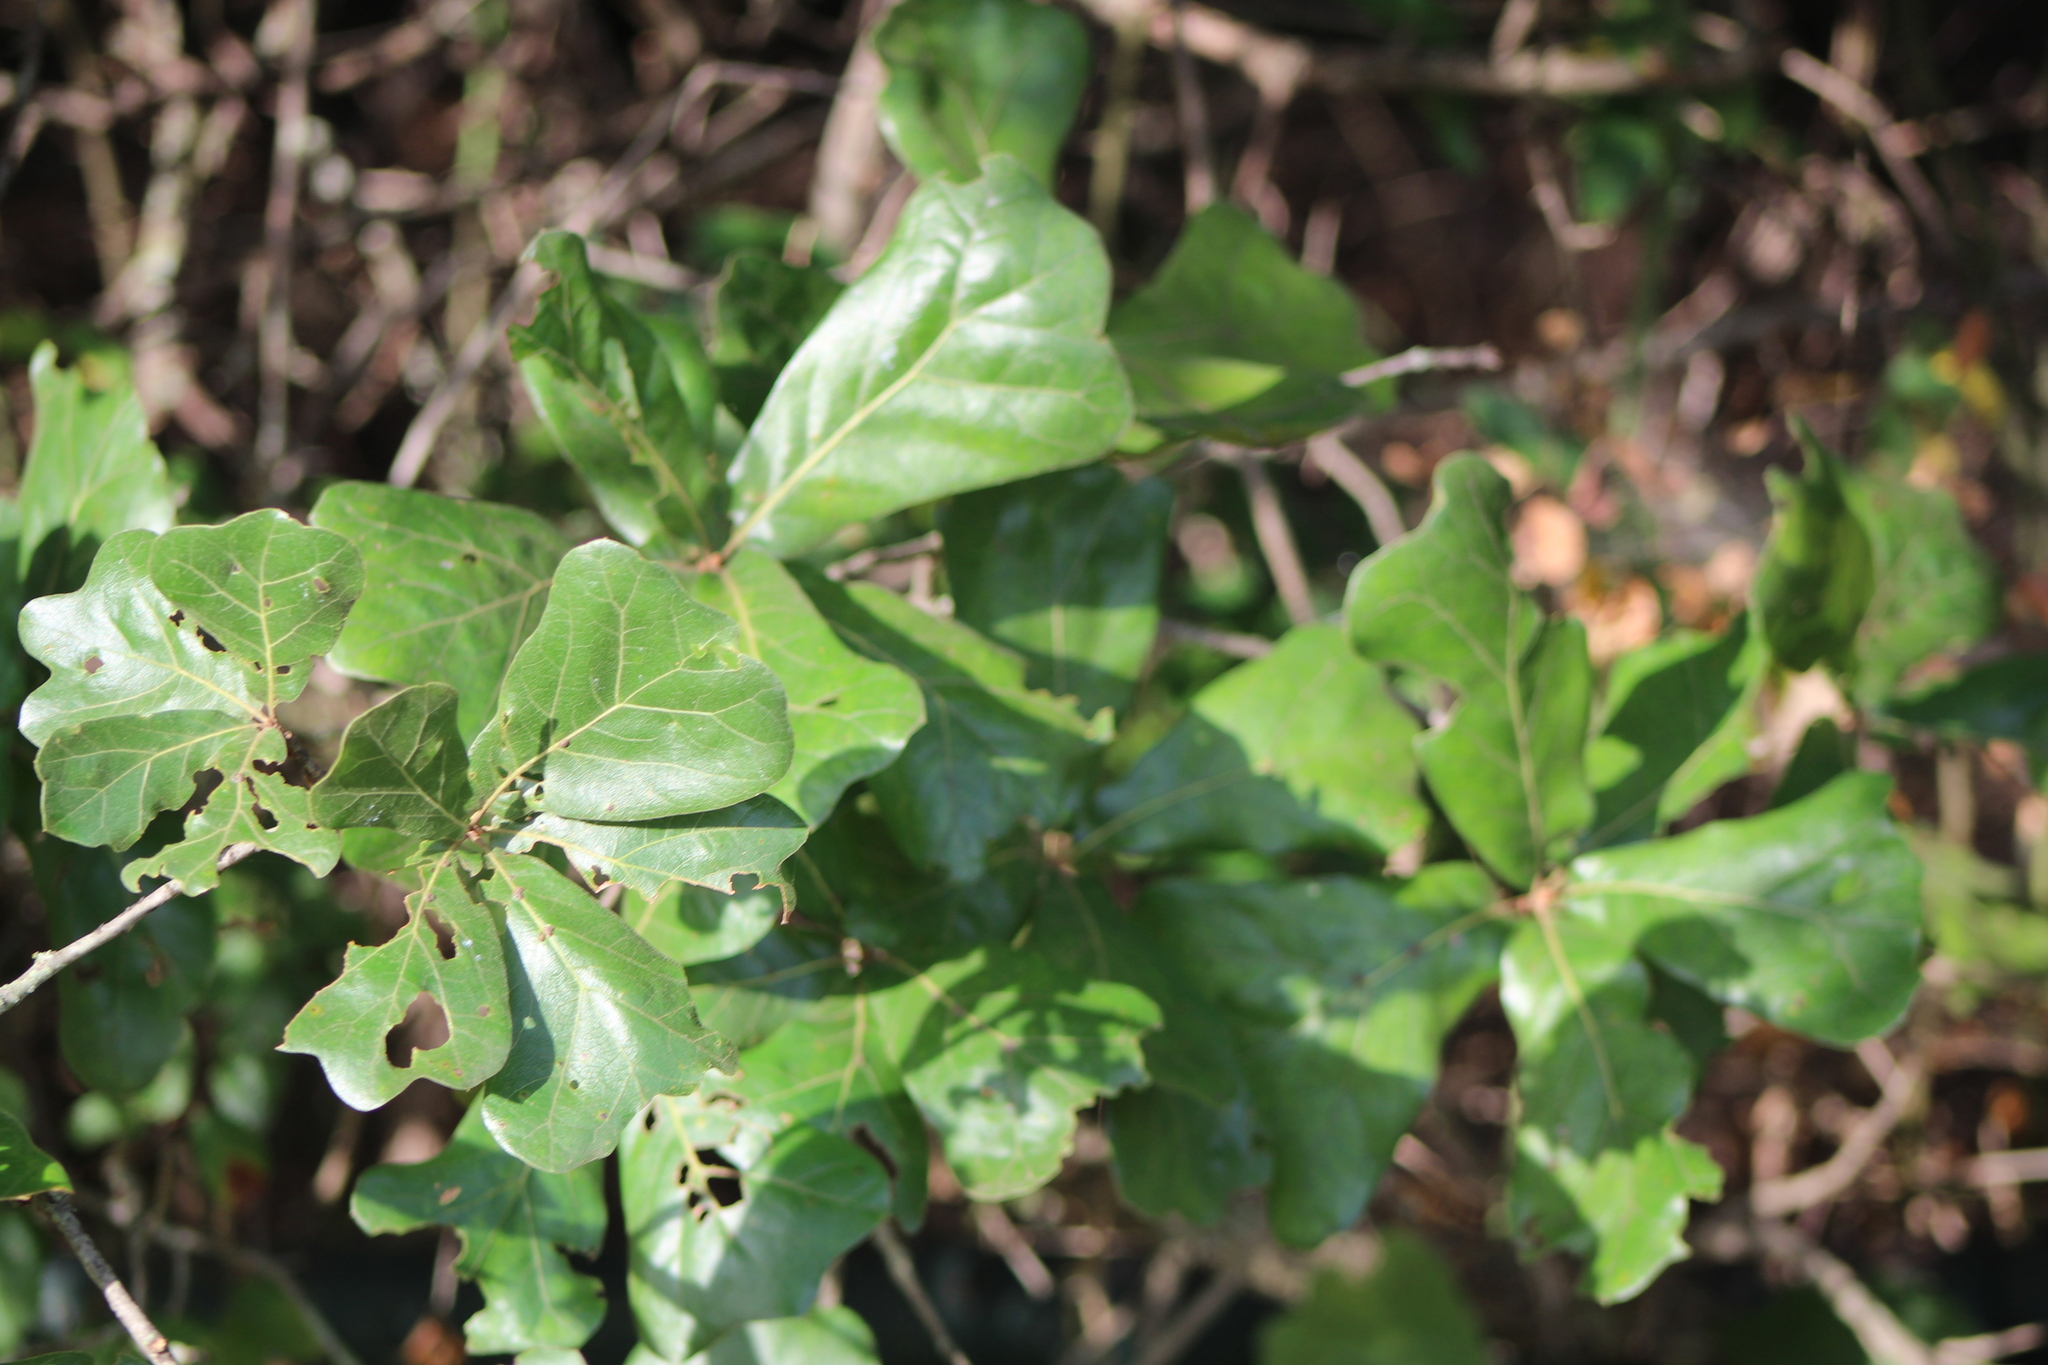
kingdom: Plantae
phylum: Tracheophyta
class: Magnoliopsida
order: Fagales
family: Fagaceae
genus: Quercus
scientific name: Quercus marilandica
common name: Blackjack oak
